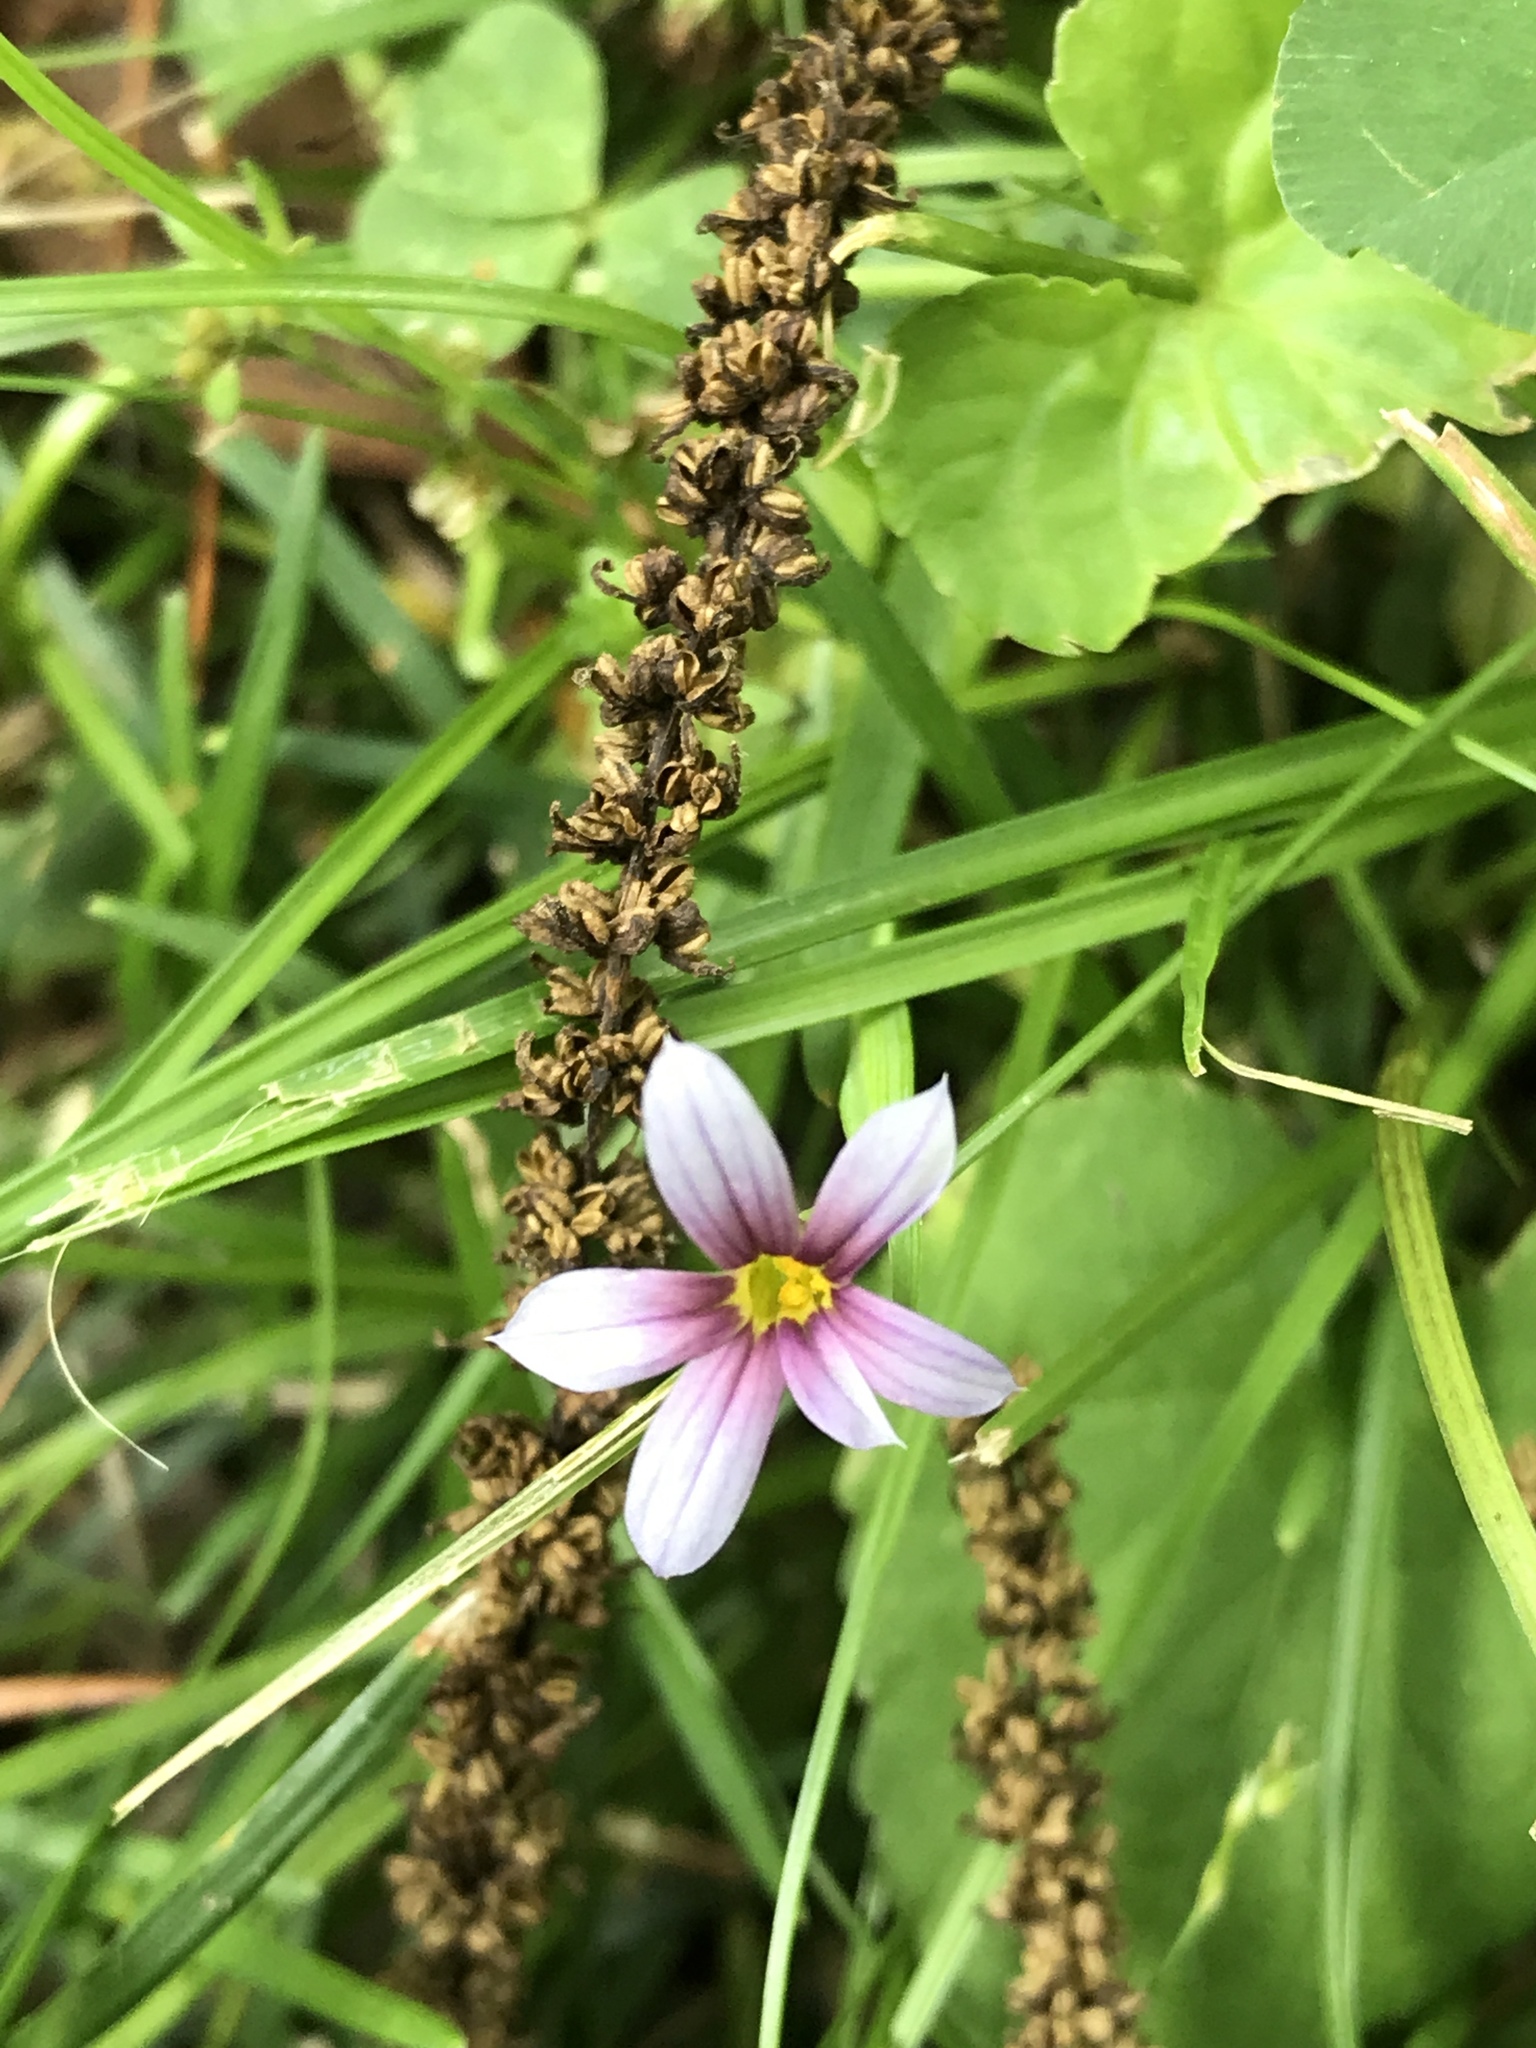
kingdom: Plantae
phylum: Tracheophyta
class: Liliopsida
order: Asparagales
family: Iridaceae
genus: Sisyrinchium
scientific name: Sisyrinchium micranthum
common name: Bermuda pigroot
